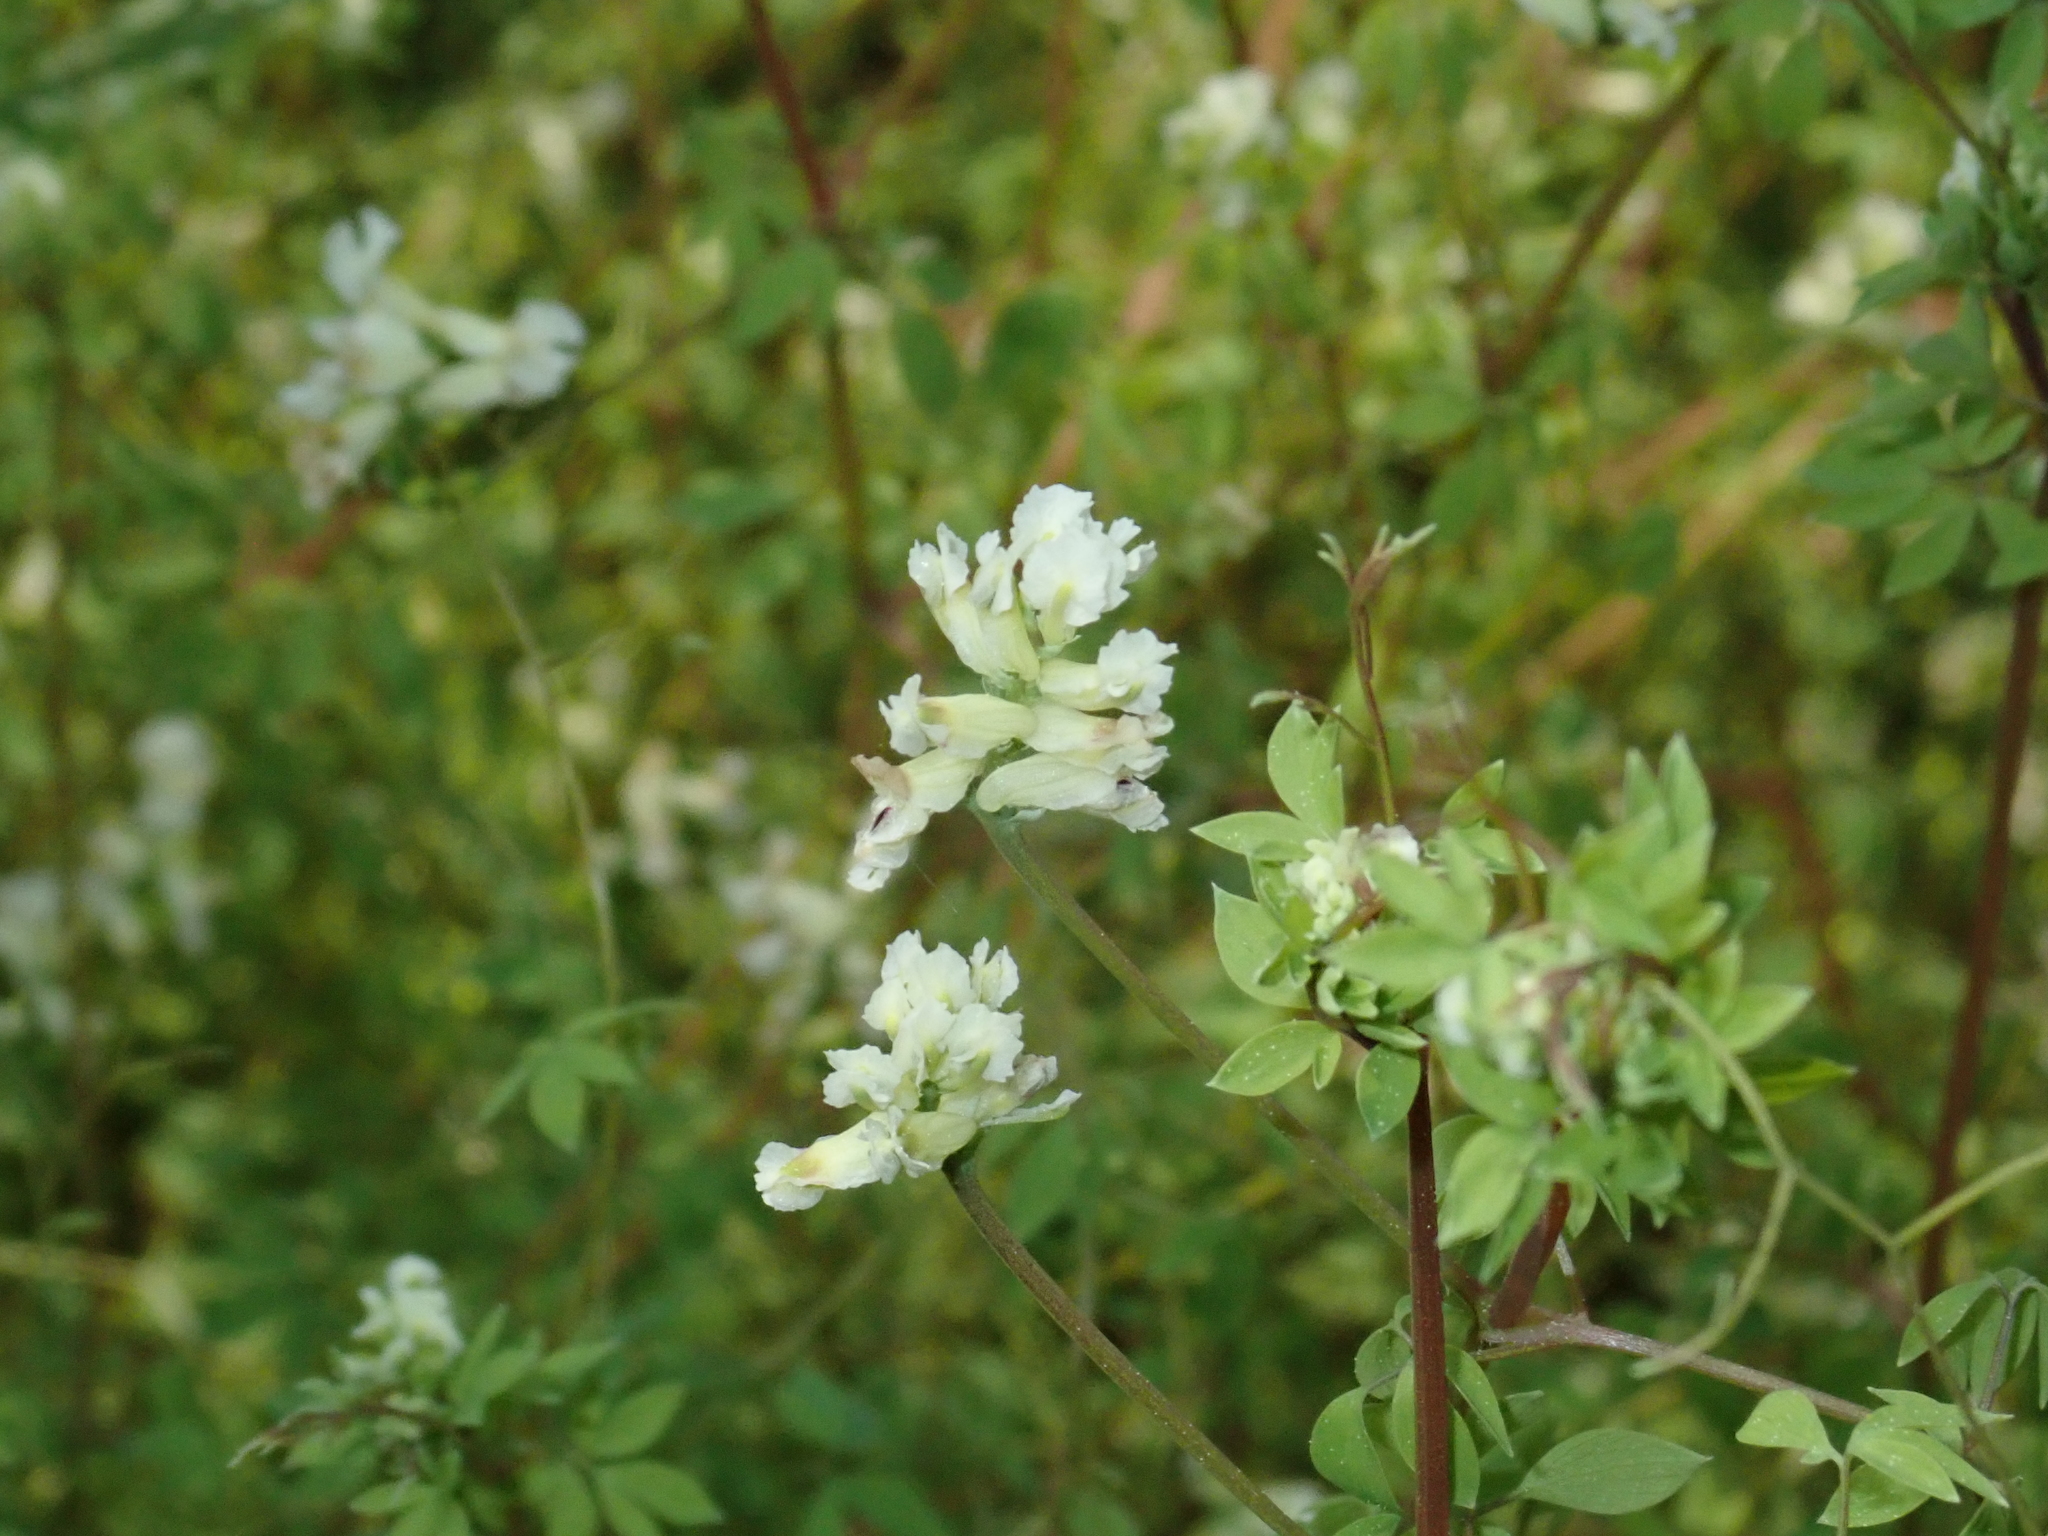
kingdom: Plantae
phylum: Tracheophyta
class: Magnoliopsida
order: Ranunculales
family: Papaveraceae
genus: Ceratocapnos
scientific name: Ceratocapnos claviculata
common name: Climbing corydalis
